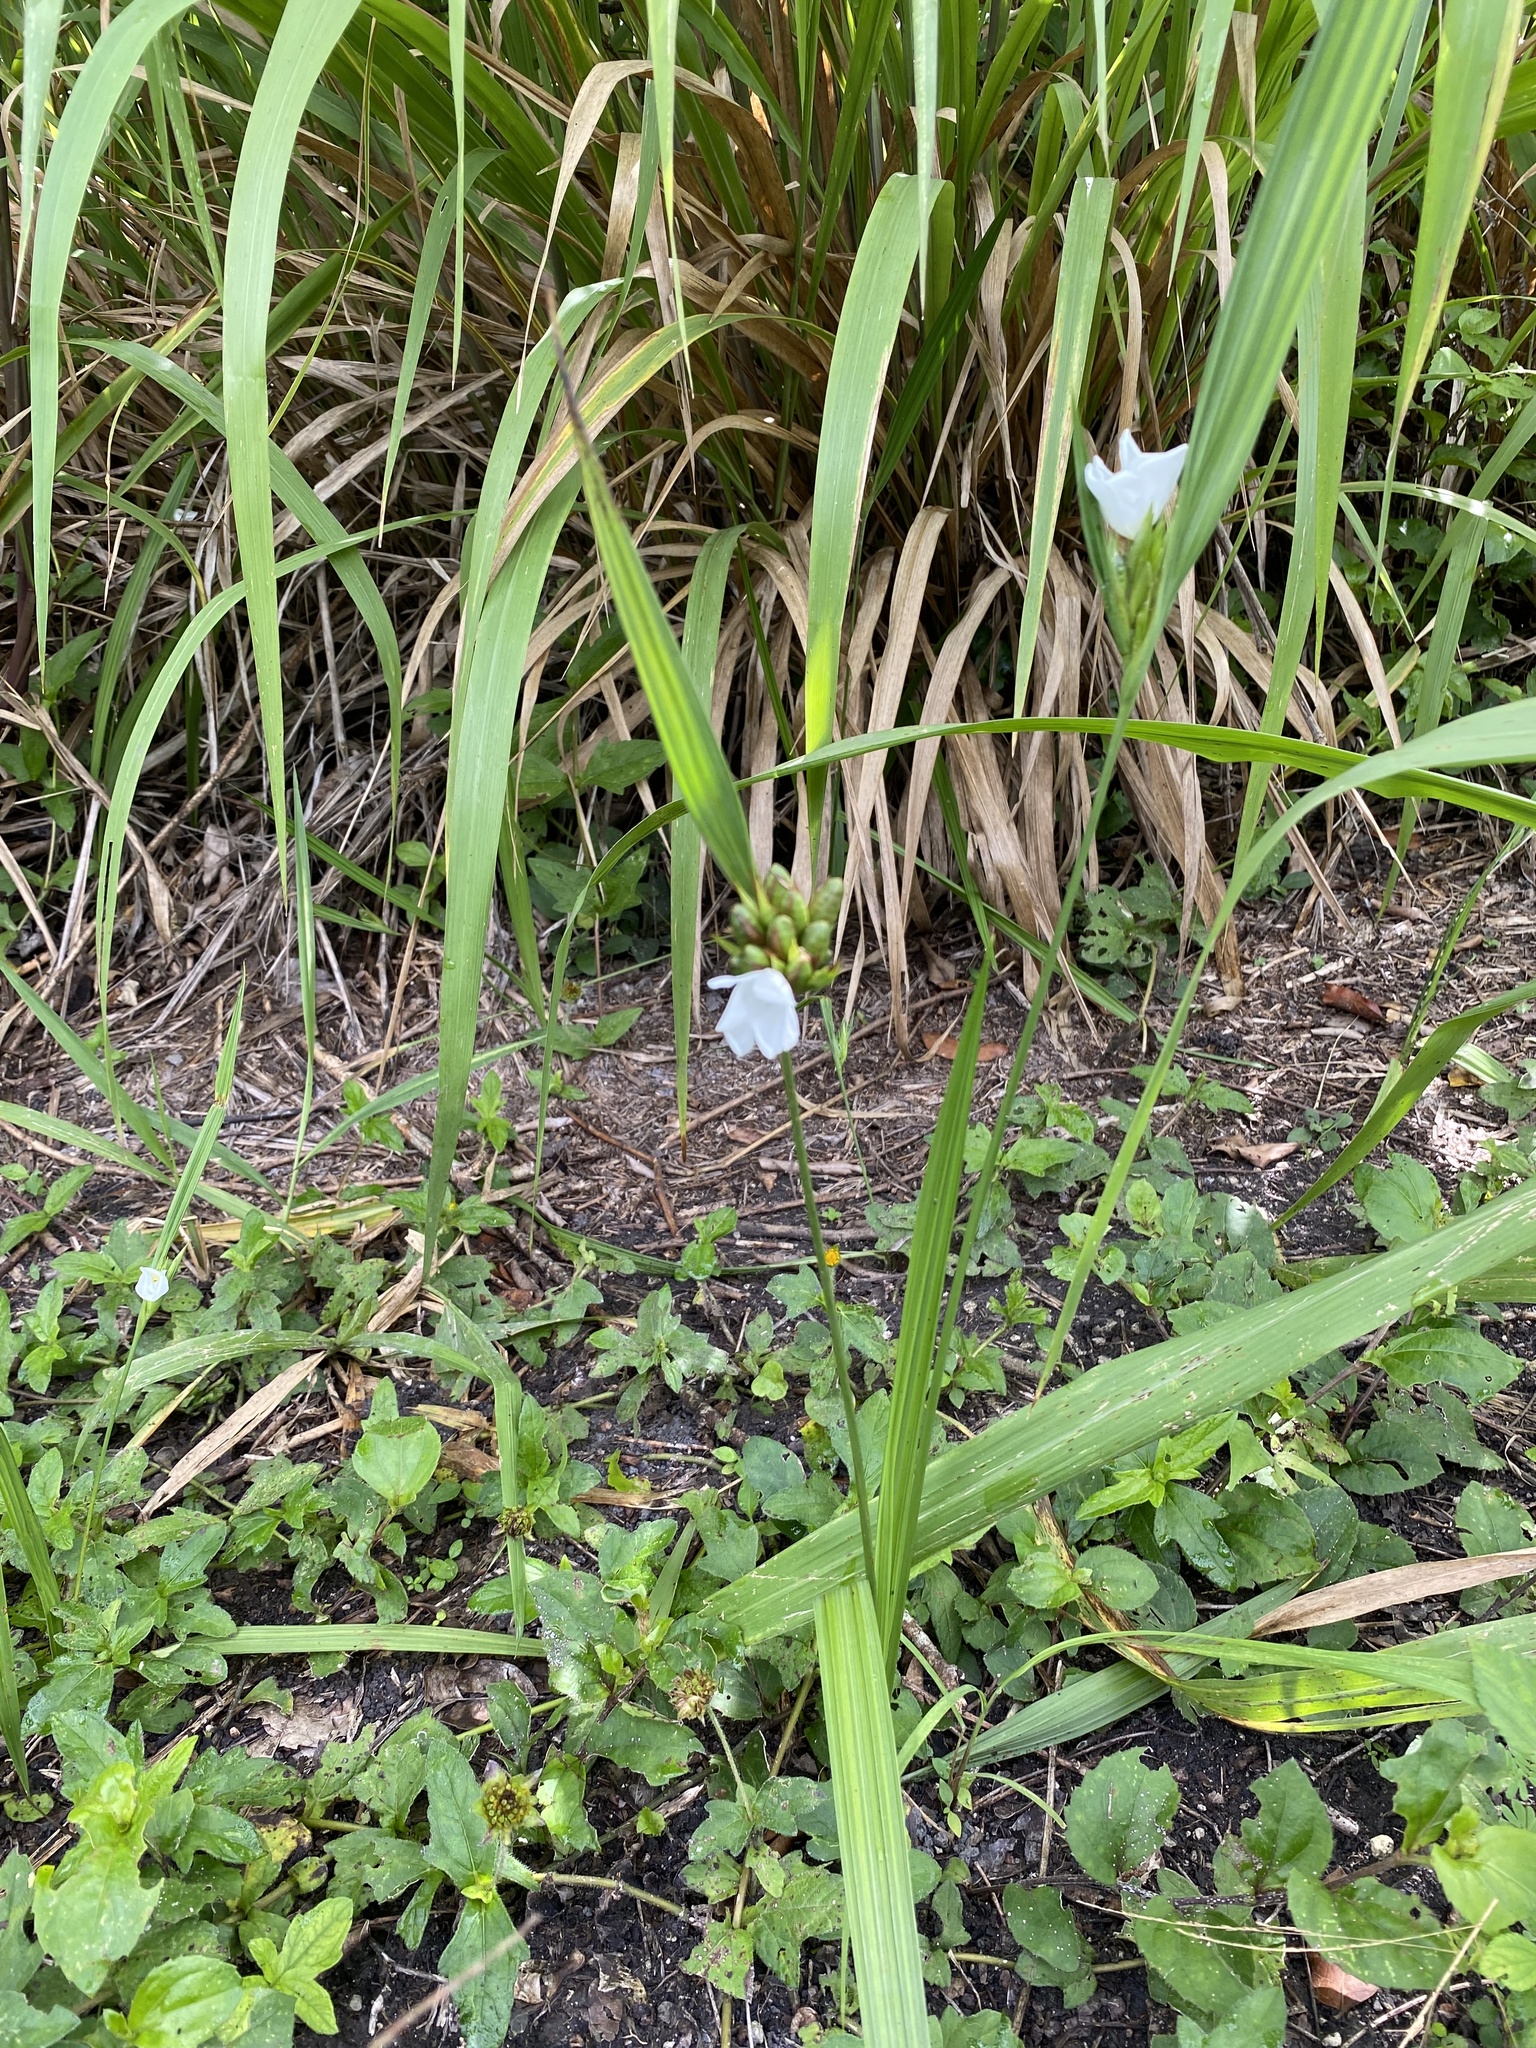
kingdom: Plantae
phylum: Tracheophyta
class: Liliopsida
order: Asparagales
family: Iridaceae
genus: Cipura
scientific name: Cipura campanulata
